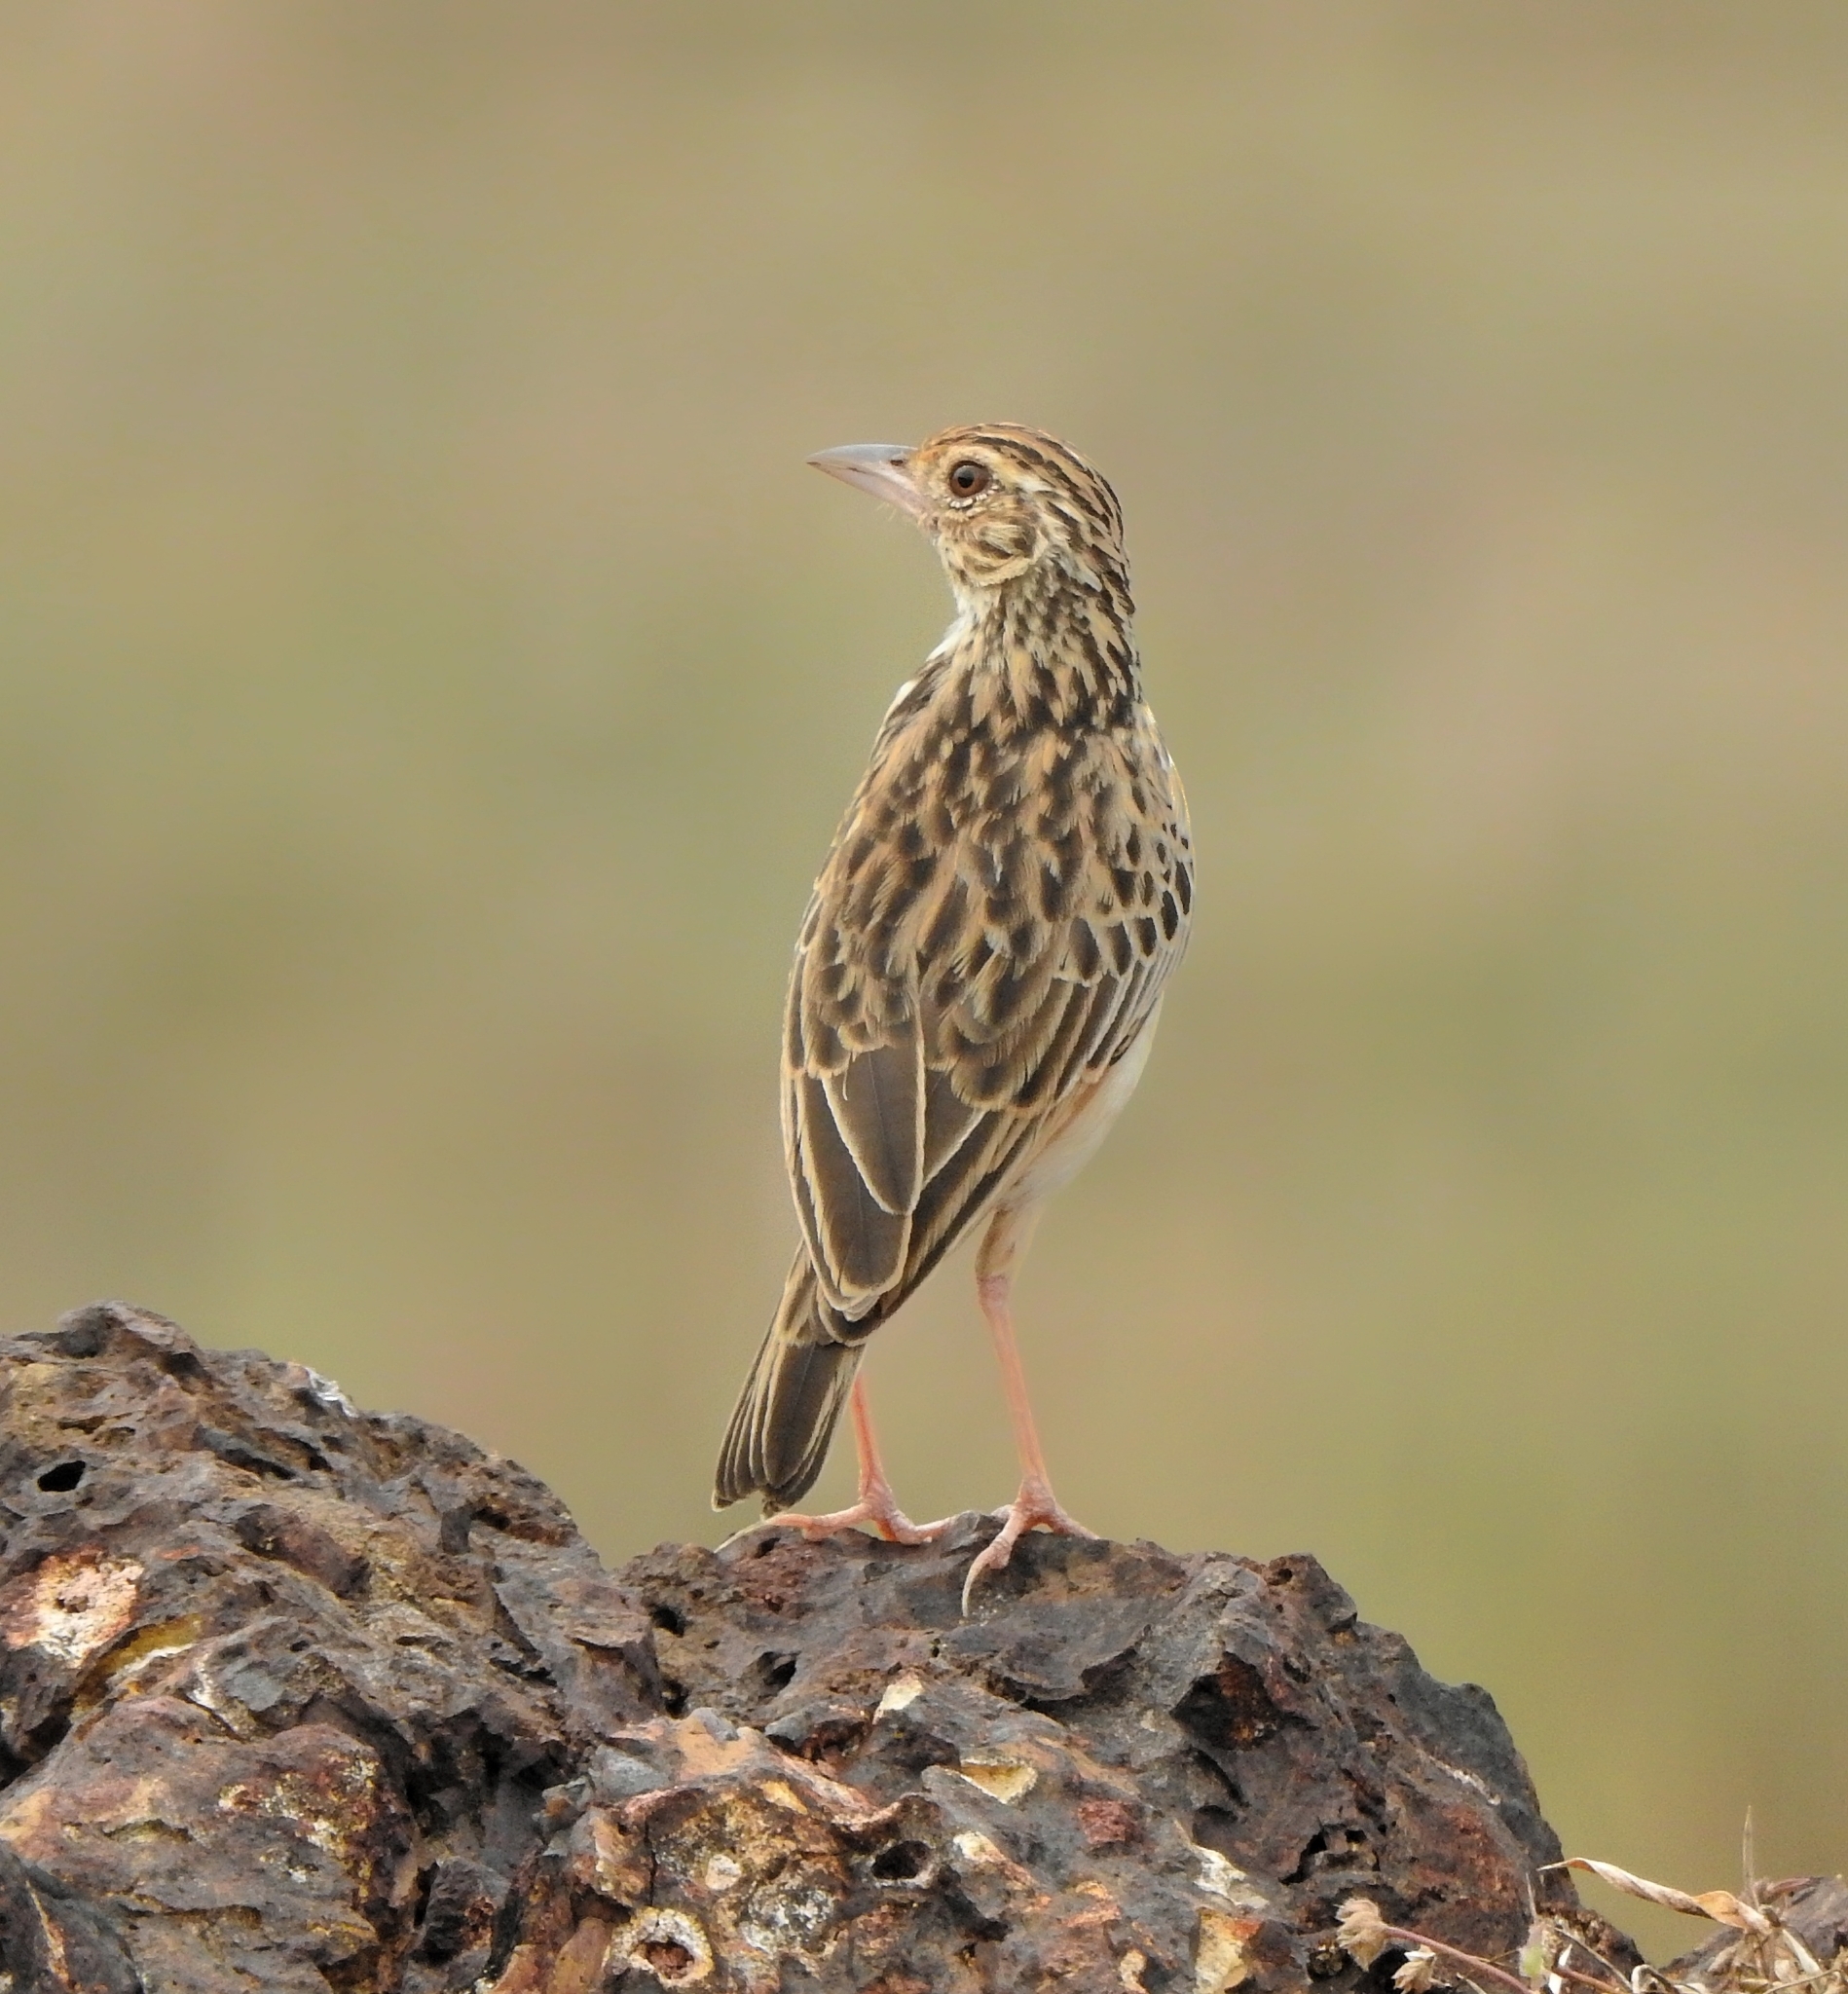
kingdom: Animalia
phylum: Chordata
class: Aves
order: Passeriformes
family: Alaudidae
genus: Mirafra
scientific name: Mirafra affinis
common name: Jerdon's bushlark
